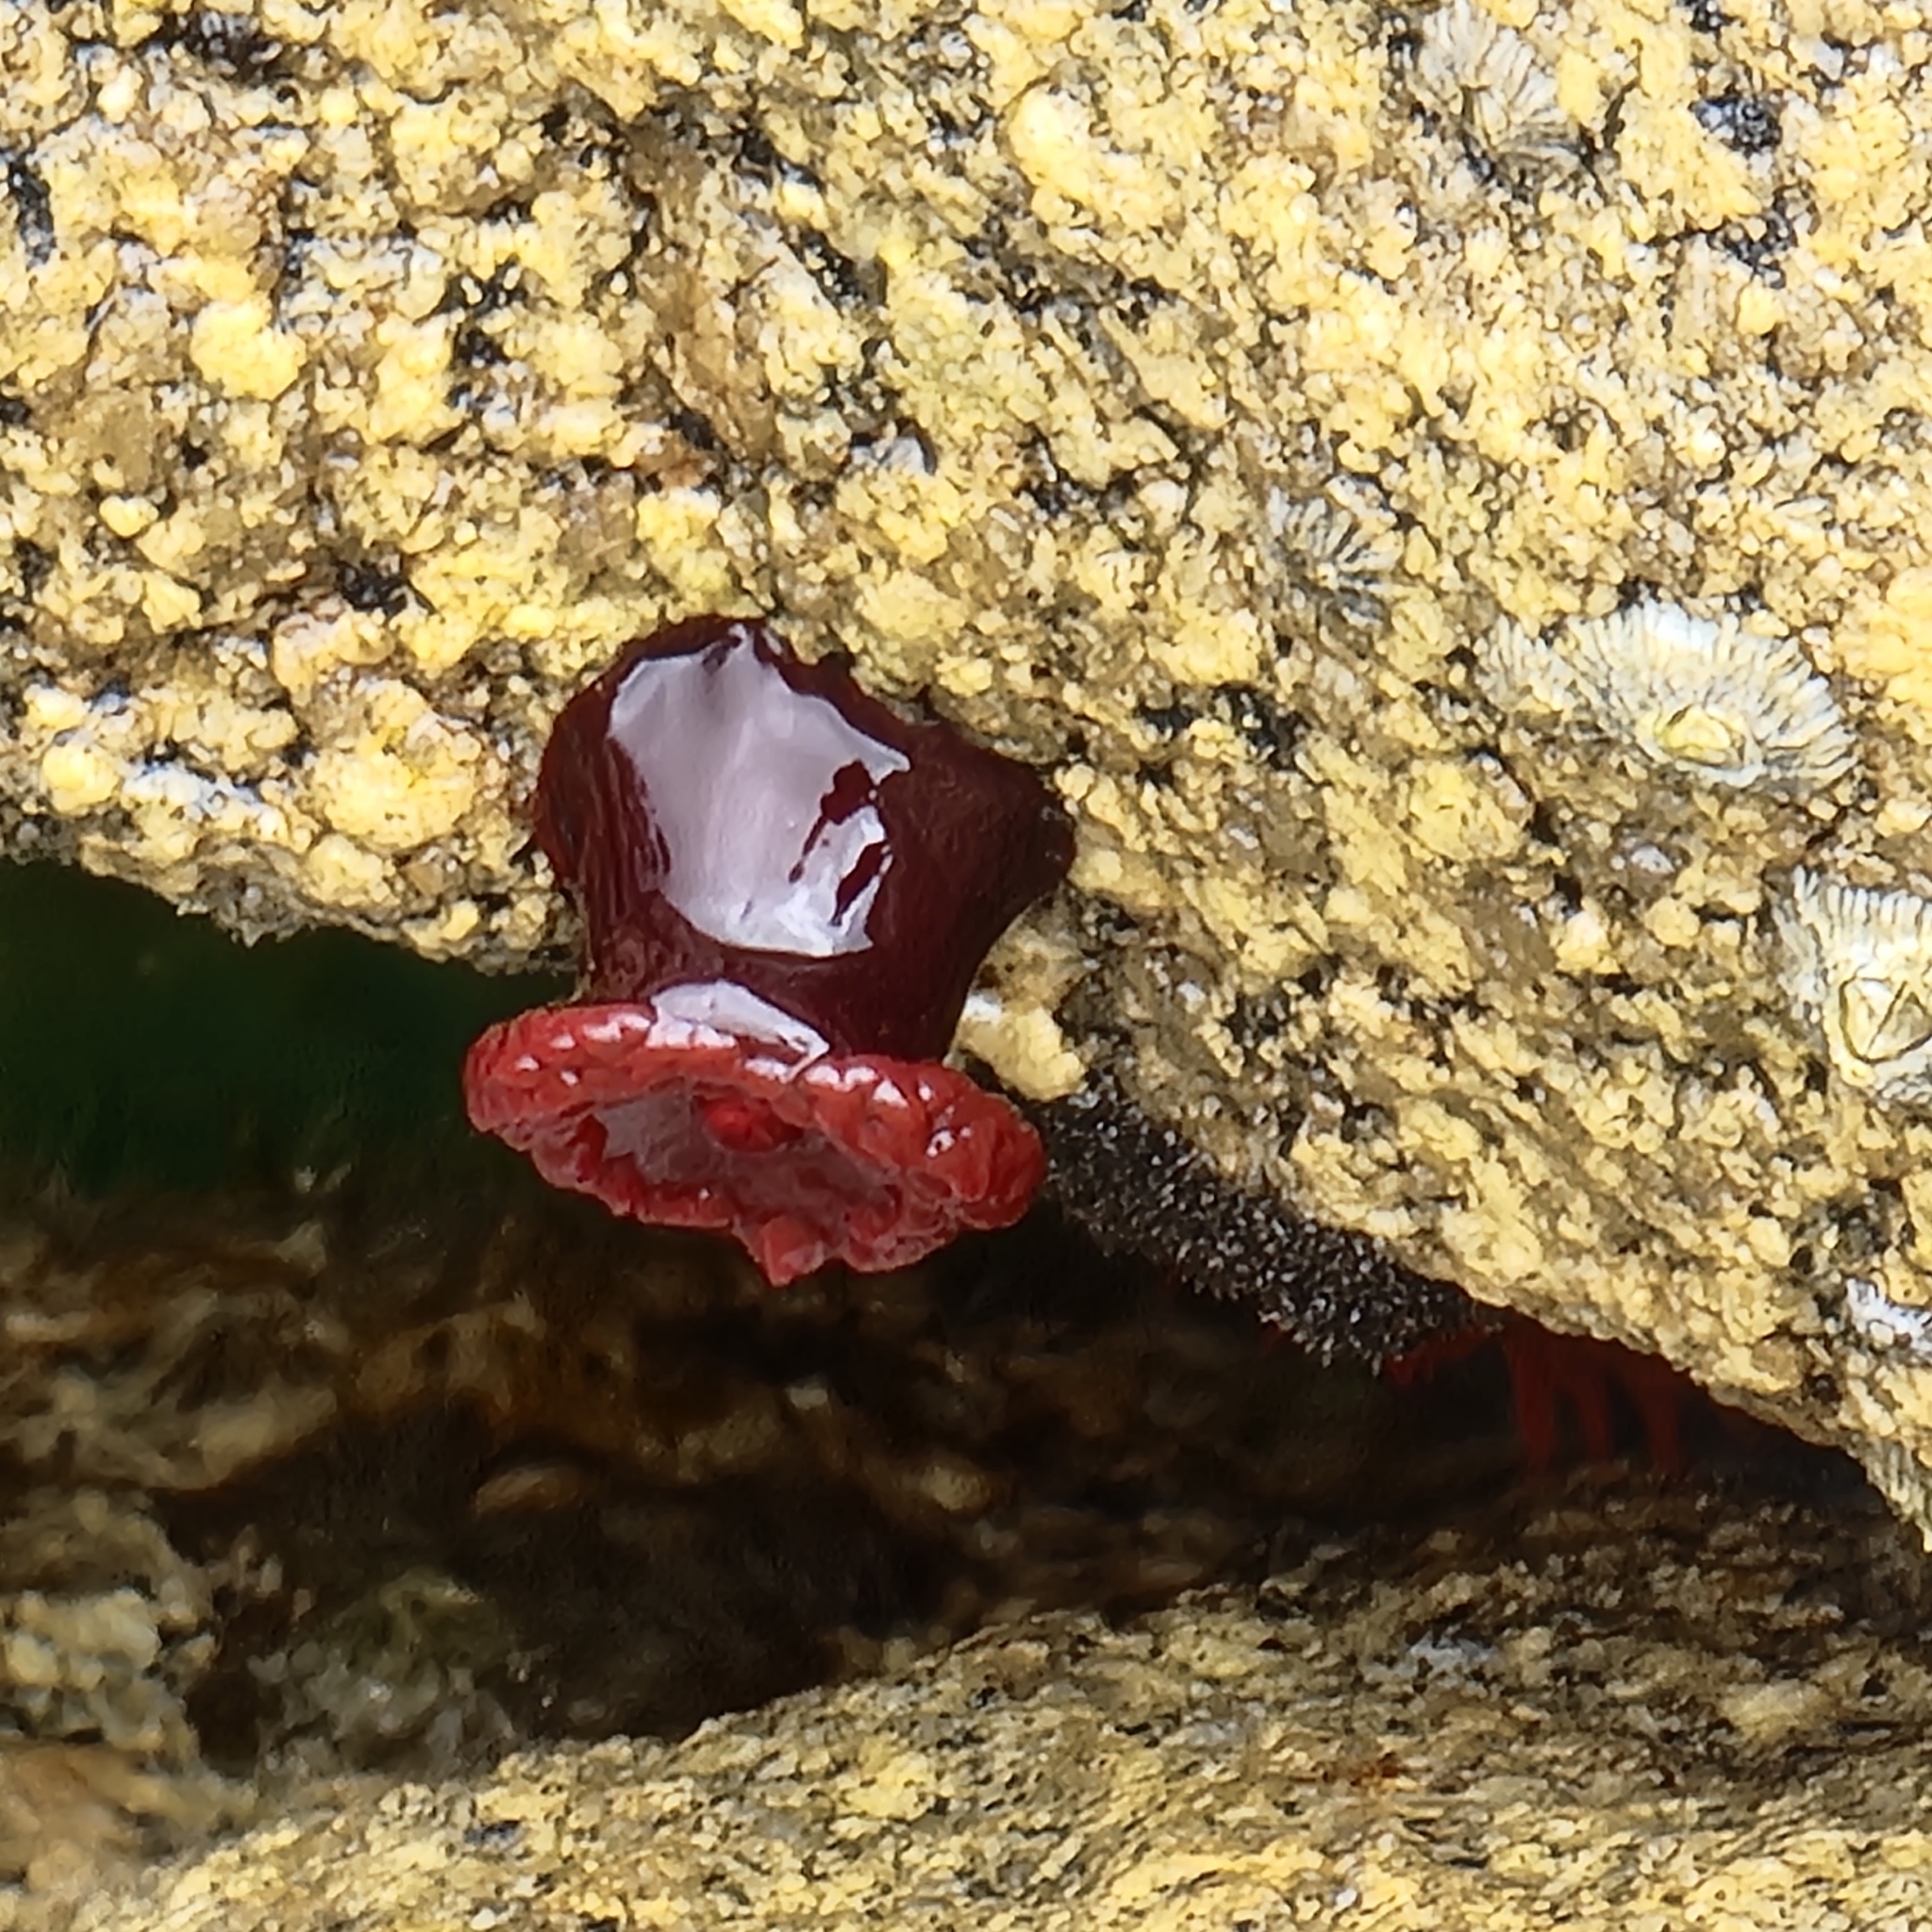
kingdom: Animalia
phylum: Cnidaria
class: Anthozoa
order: Actiniaria
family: Actiniidae
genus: Actinia
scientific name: Actinia tenebrosa
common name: Waratah anemone
